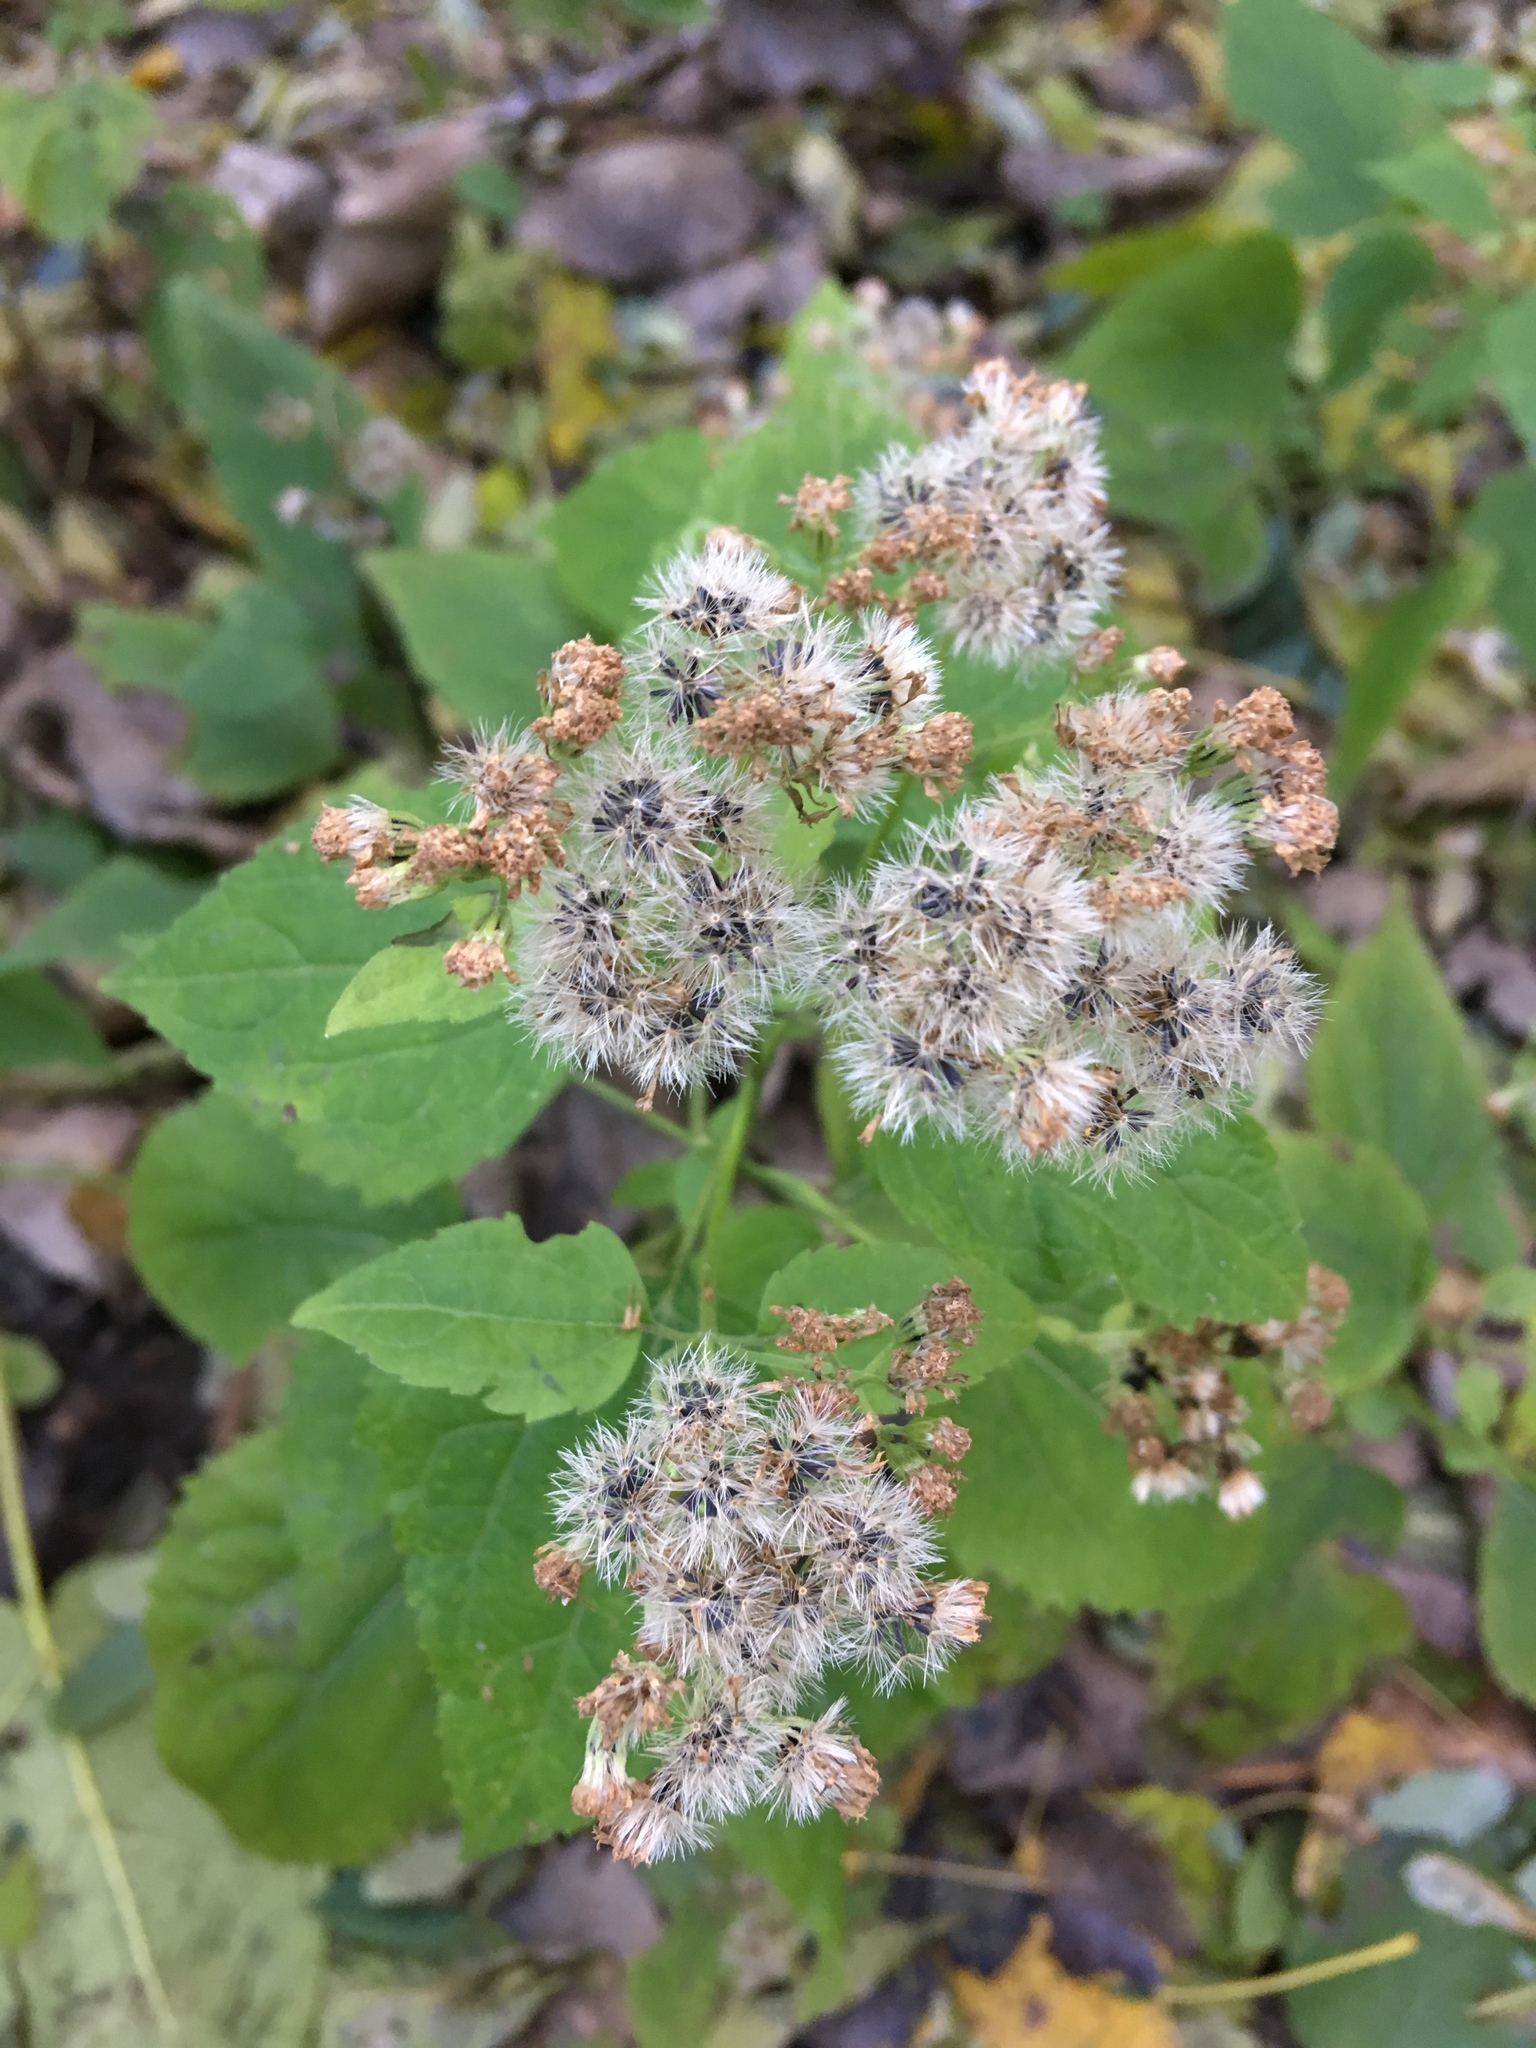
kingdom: Plantae
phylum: Tracheophyta
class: Magnoliopsida
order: Asterales
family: Asteraceae
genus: Ageratina
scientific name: Ageratina altissima
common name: White snakeroot
